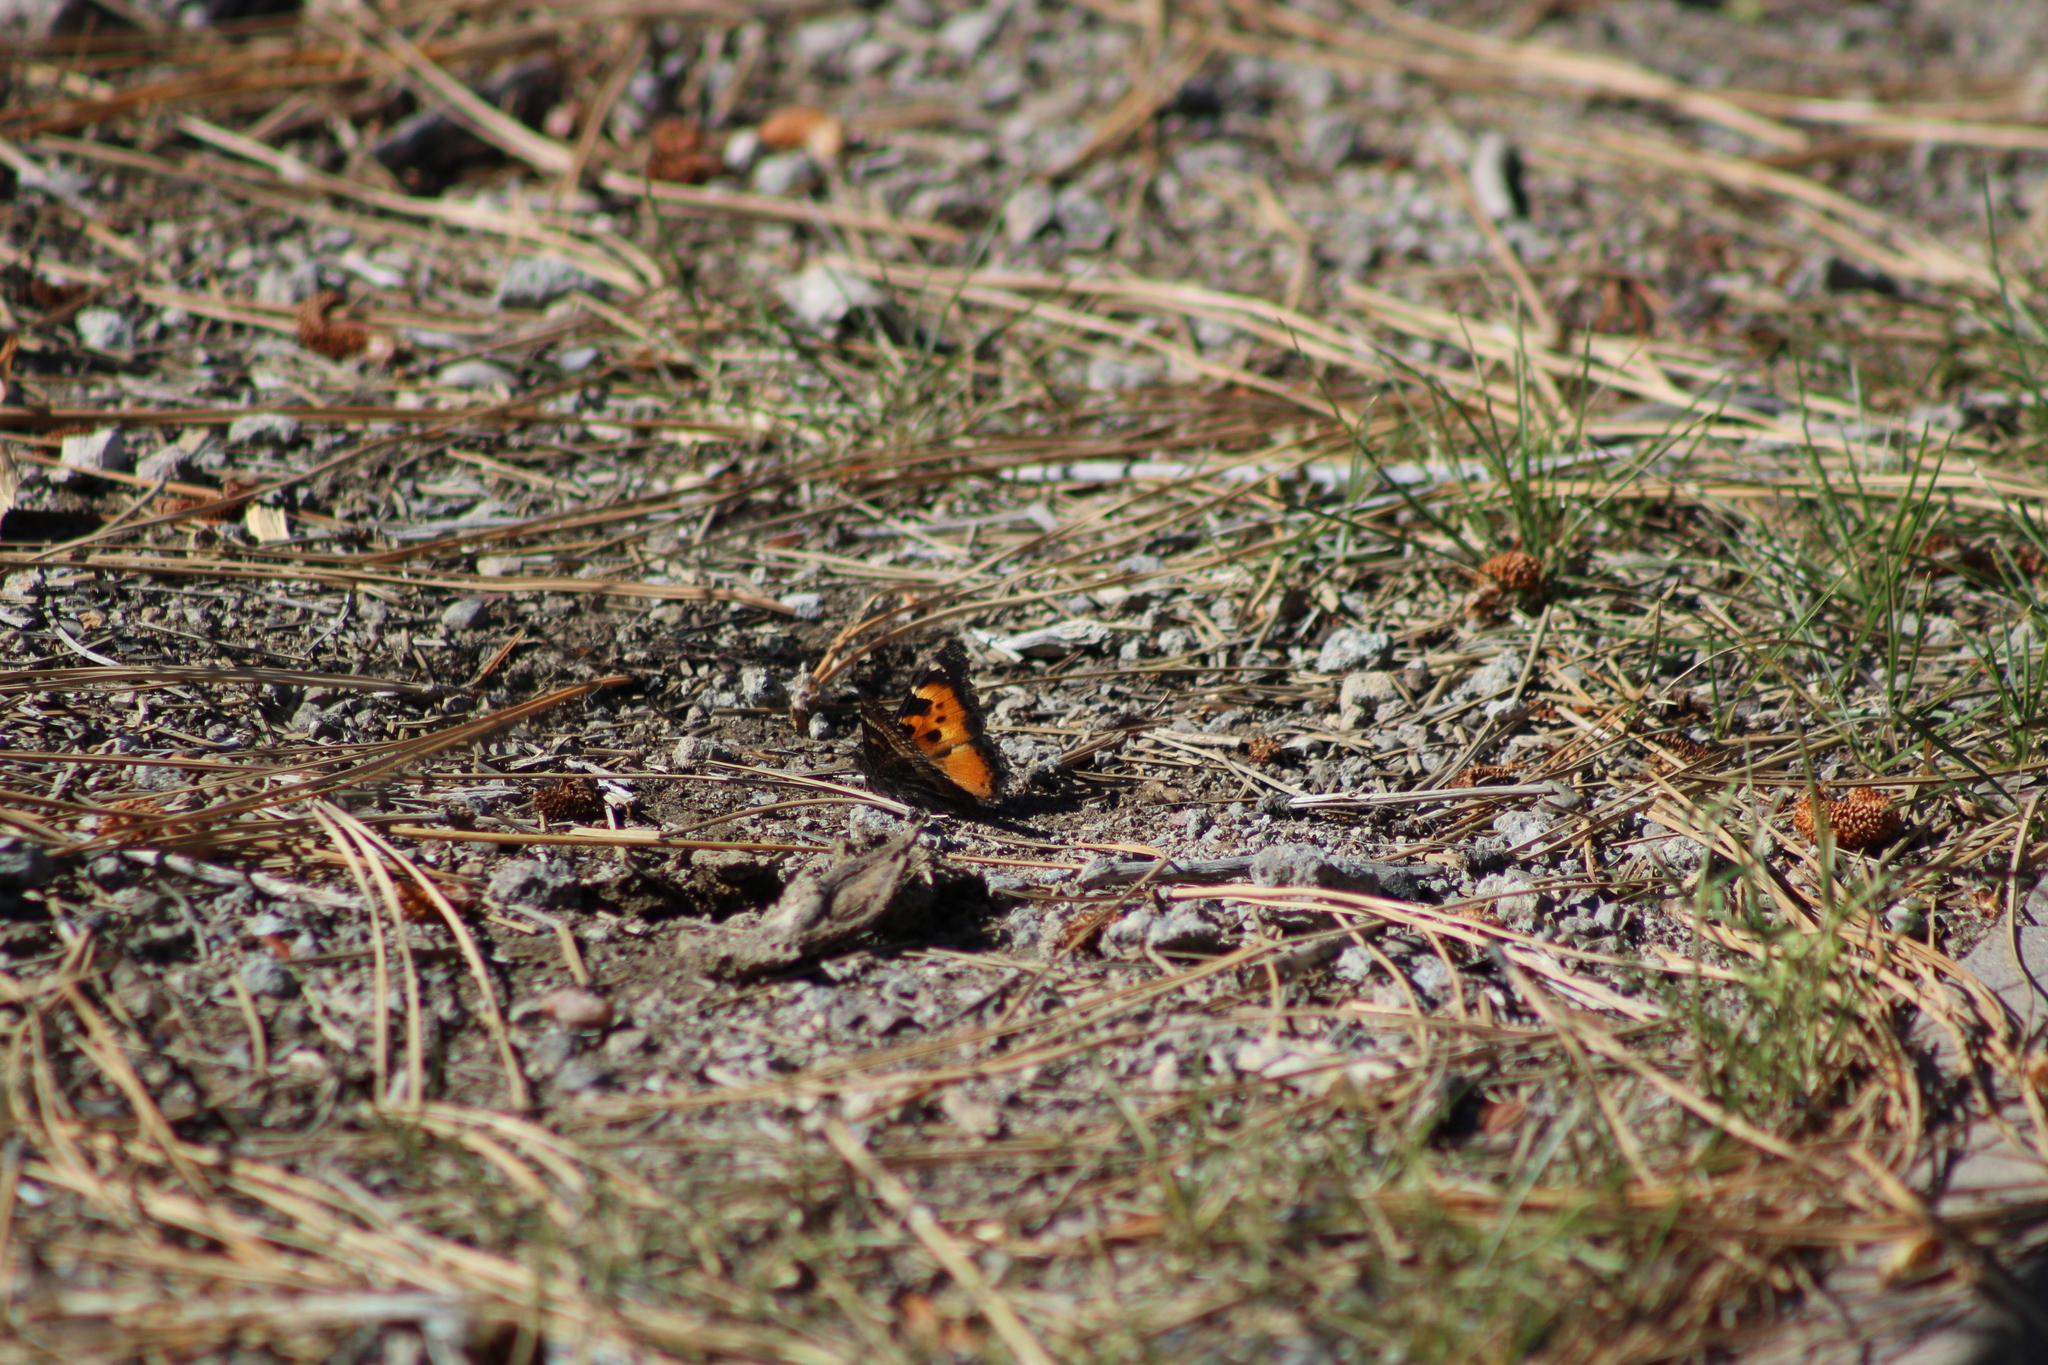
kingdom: Animalia
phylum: Arthropoda
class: Insecta
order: Lepidoptera
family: Nymphalidae
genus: Nymphalis
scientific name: Nymphalis californica
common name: California tortoiseshell
